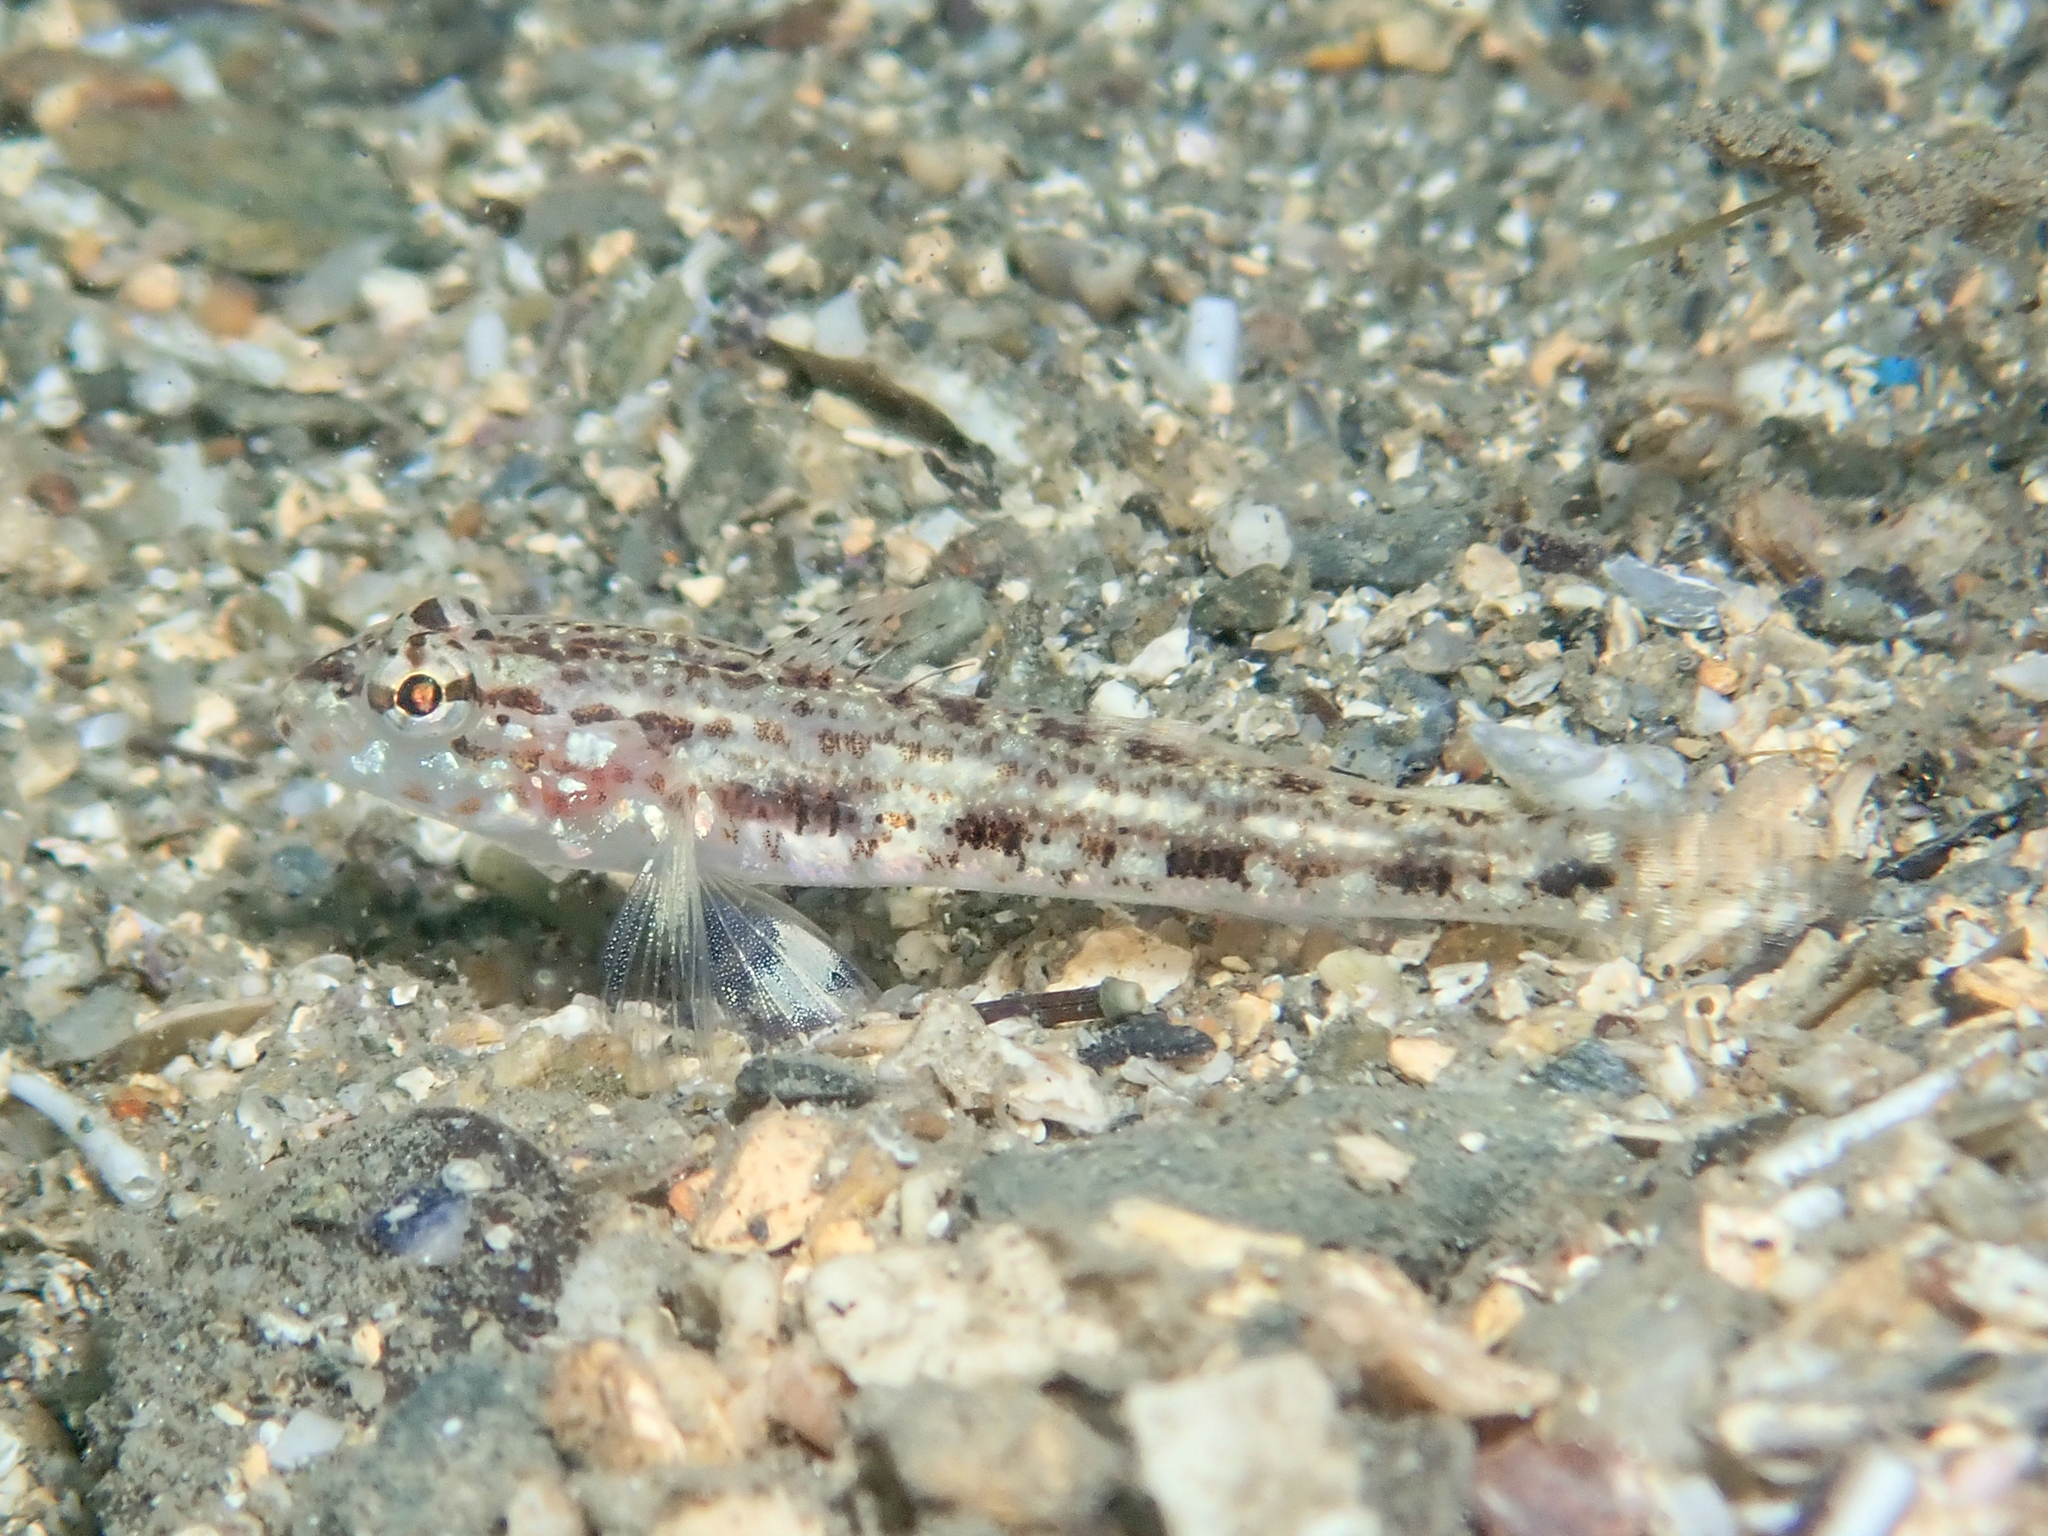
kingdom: Animalia
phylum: Chordata
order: Perciformes
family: Gobiidae
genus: Gobius
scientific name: Gobius geniporus
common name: Slender goby
